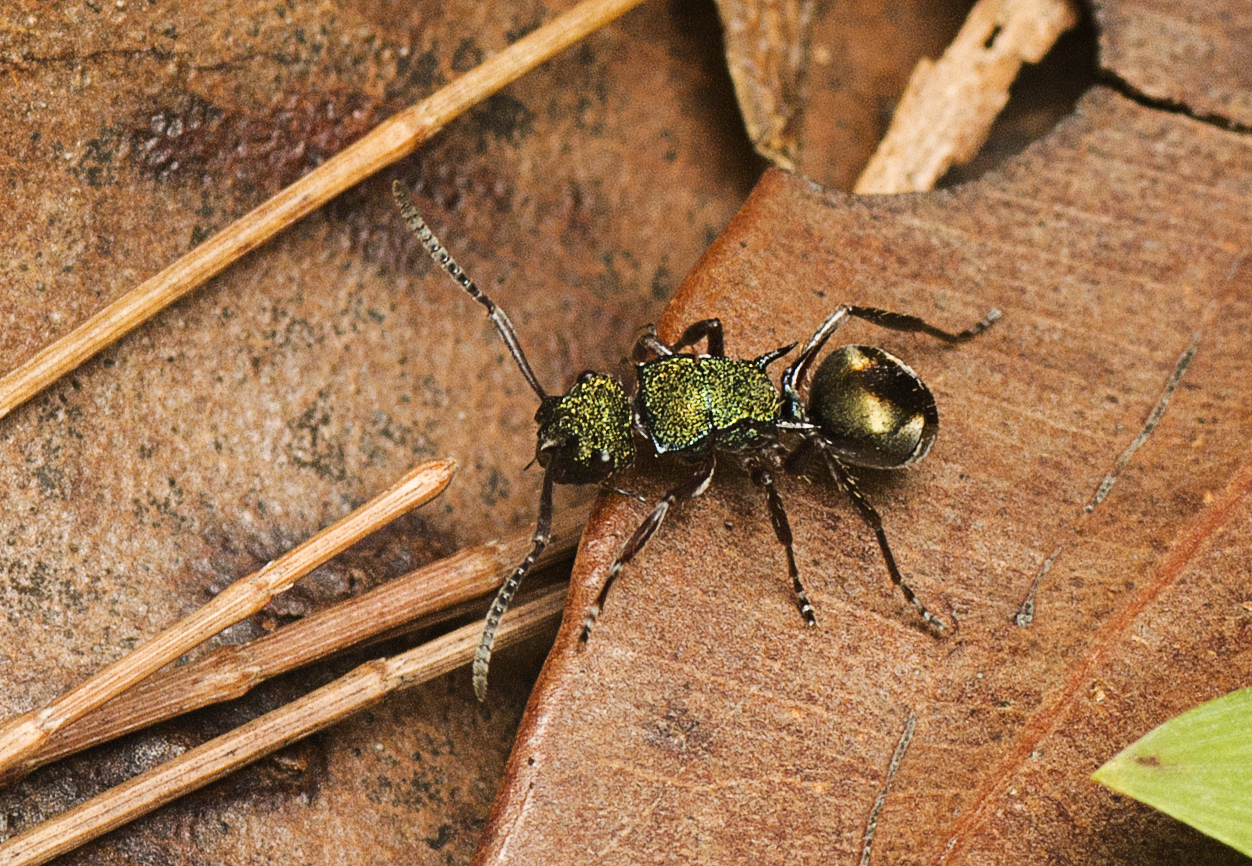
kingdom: Animalia
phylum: Arthropoda
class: Insecta
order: Hymenoptera
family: Formicidae
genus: Polyrhachis
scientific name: Polyrhachis hookeri
